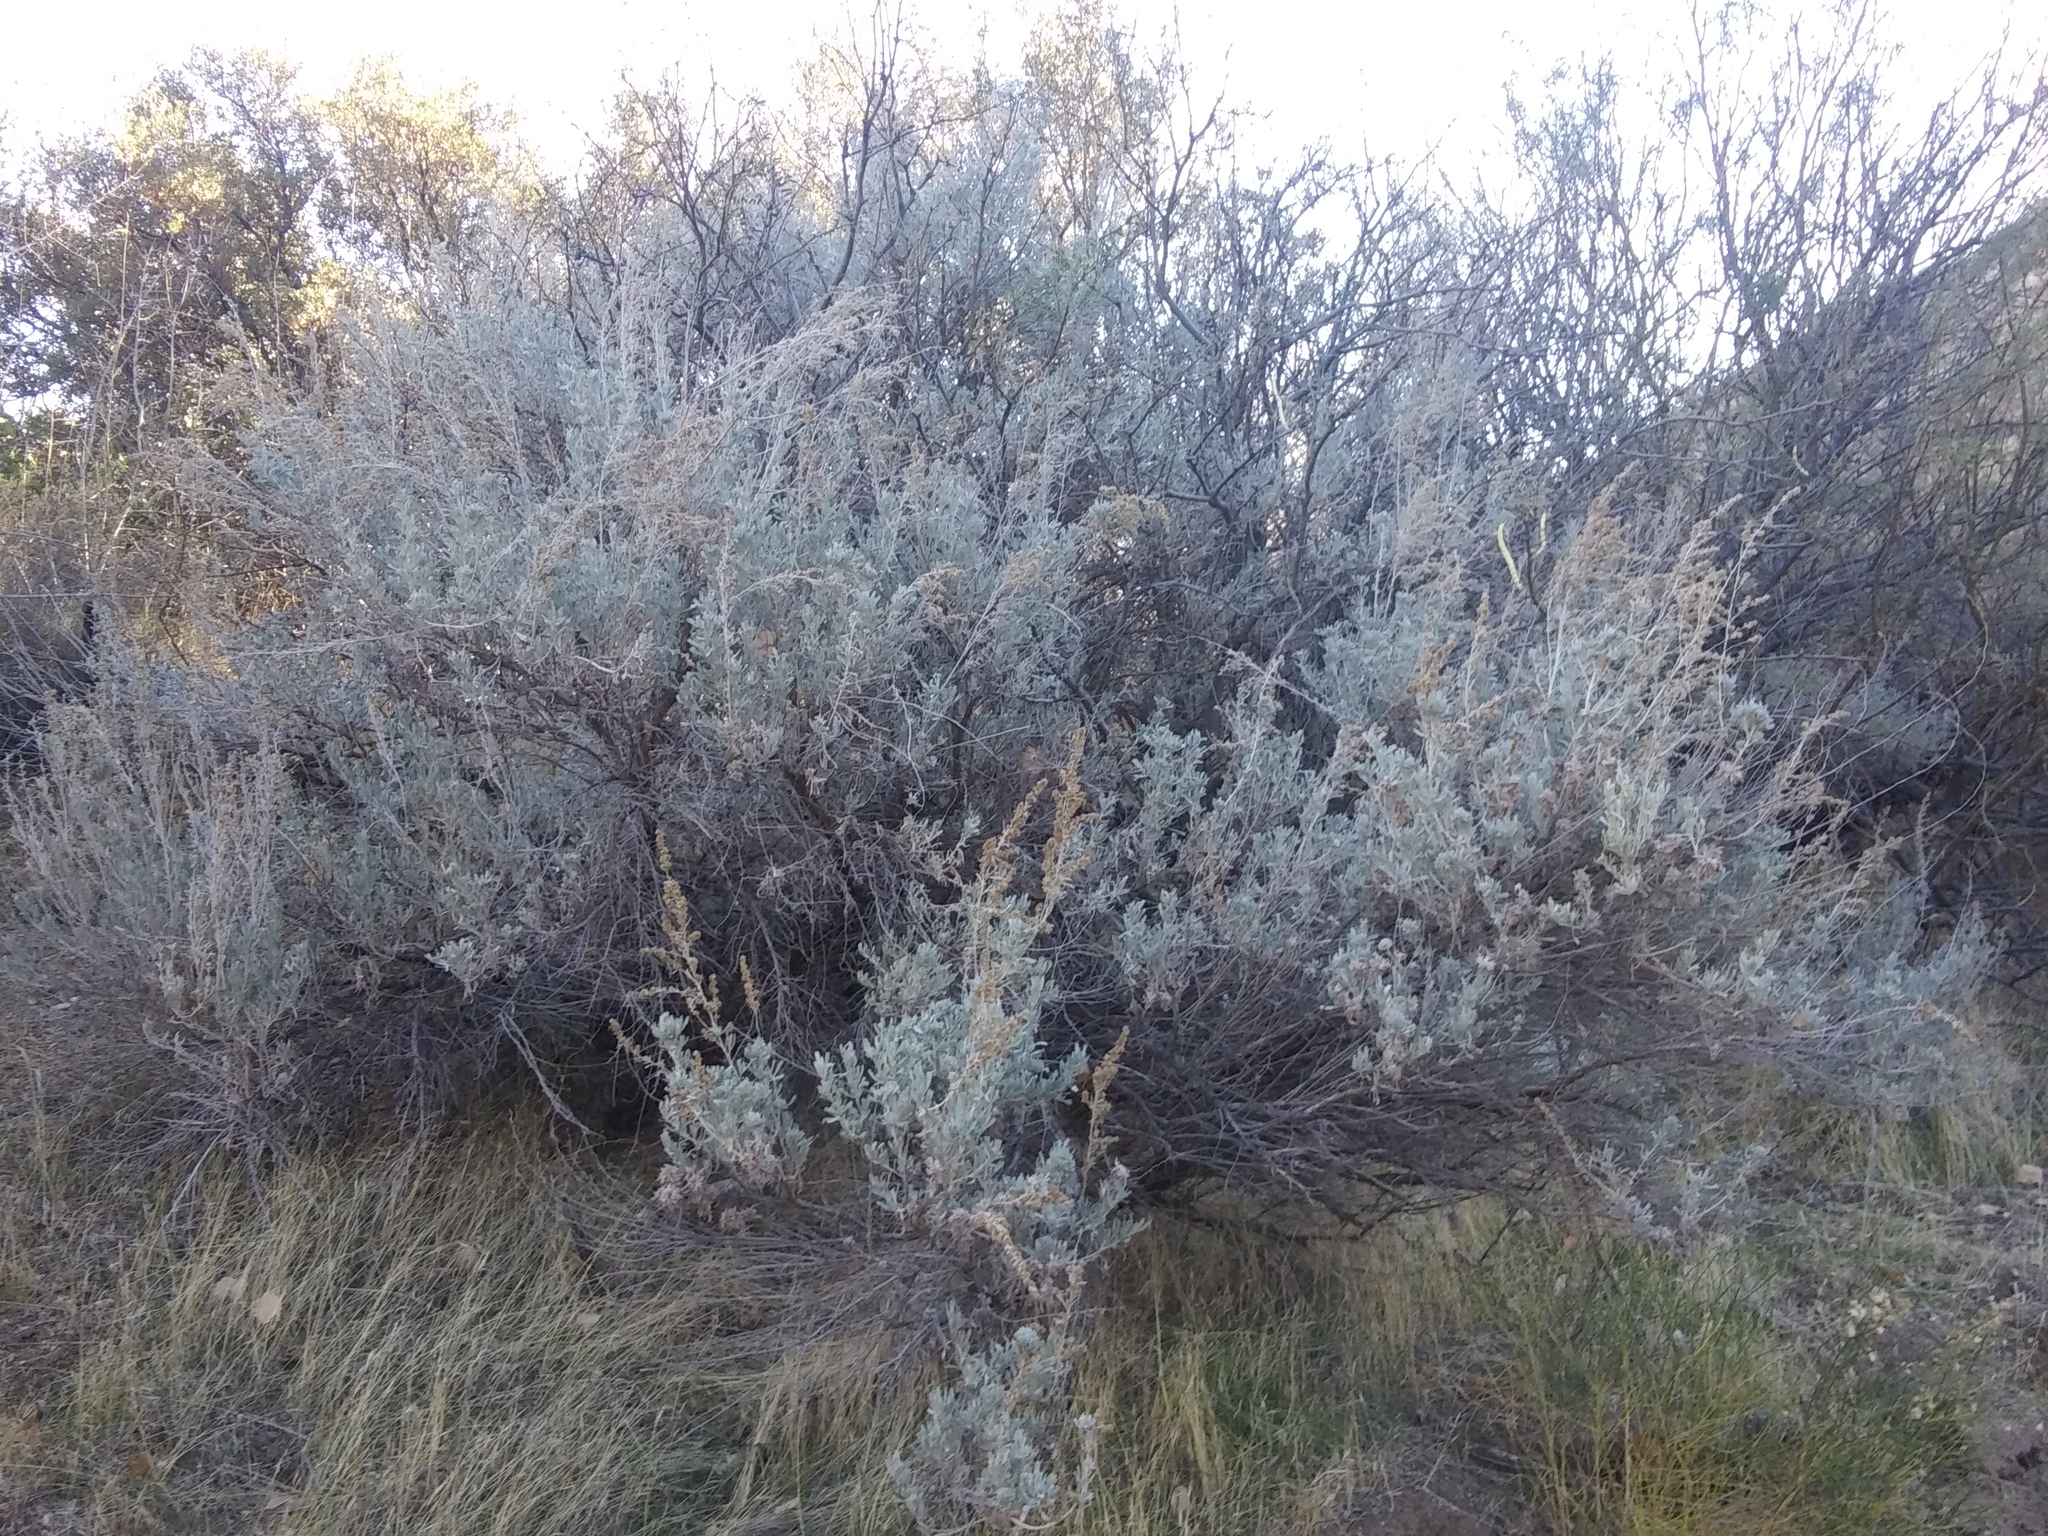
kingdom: Plantae
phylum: Tracheophyta
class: Magnoliopsida
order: Asterales
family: Asteraceae
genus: Artemisia
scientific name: Artemisia tridentata
